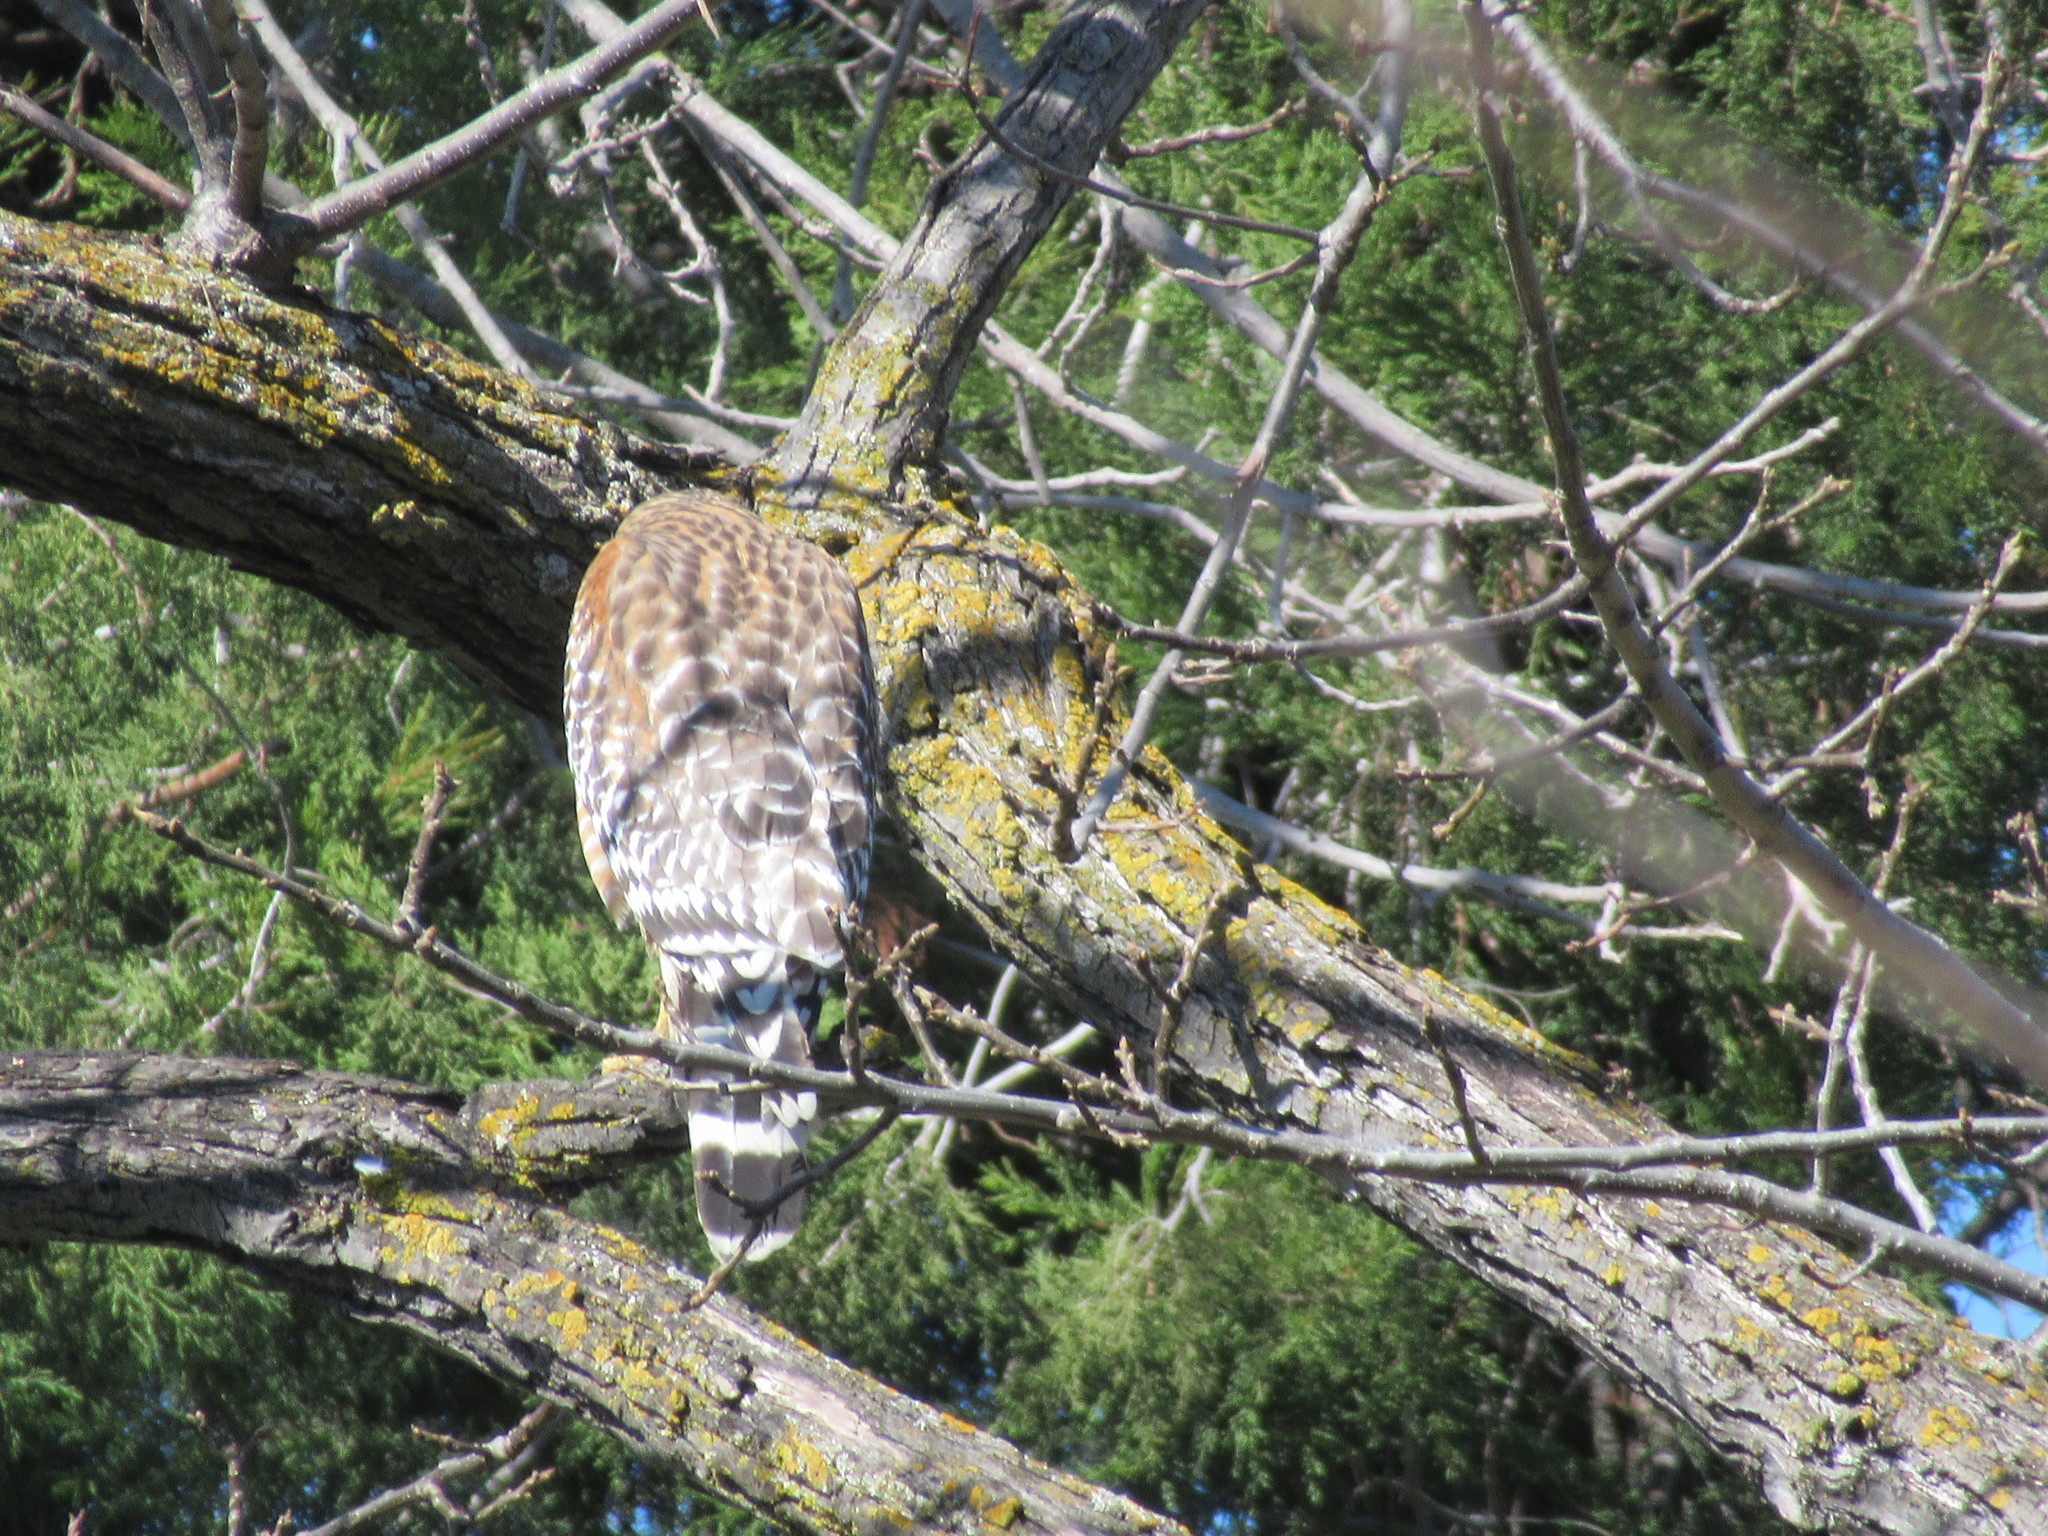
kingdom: Animalia
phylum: Chordata
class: Aves
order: Accipitriformes
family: Accipitridae
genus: Buteo
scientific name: Buteo lineatus
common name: Red-shouldered hawk
